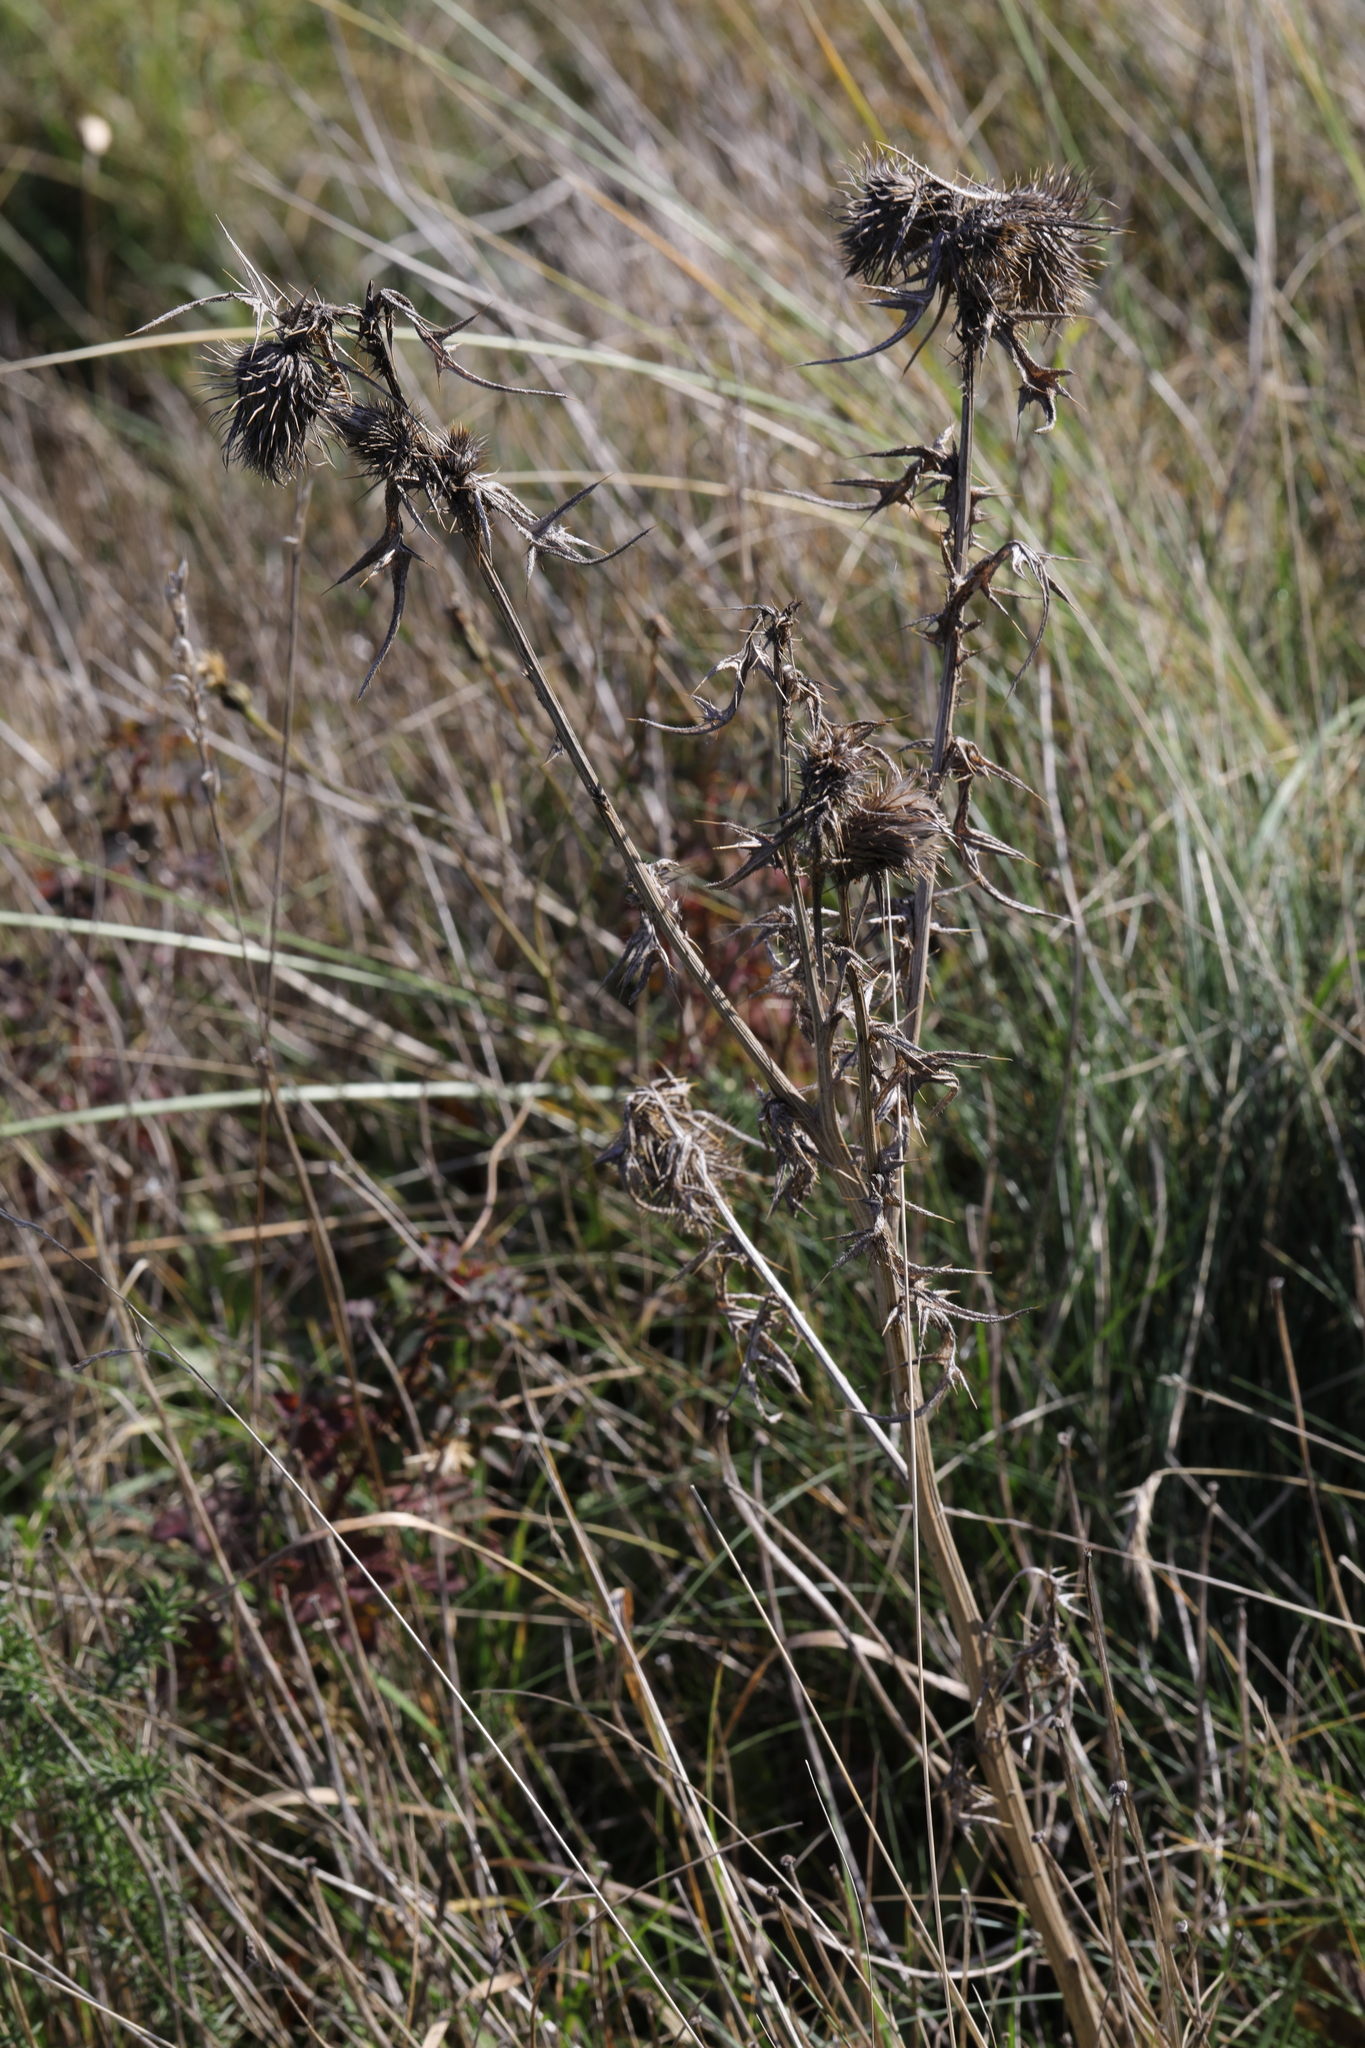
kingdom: Plantae
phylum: Tracheophyta
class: Magnoliopsida
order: Asterales
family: Asteraceae
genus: Cirsium
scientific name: Cirsium vulgare
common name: Bull thistle
